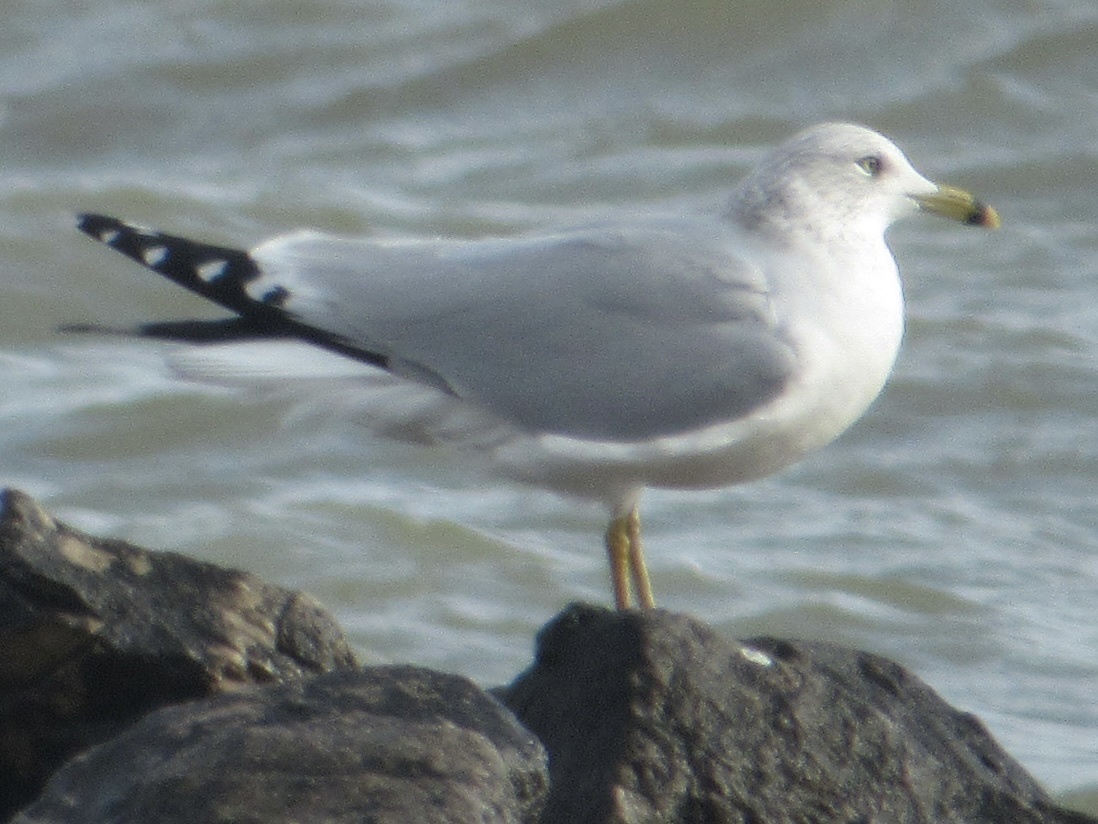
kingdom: Animalia
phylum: Chordata
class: Aves
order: Charadriiformes
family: Laridae
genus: Larus
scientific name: Larus delawarensis
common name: Ring-billed gull
